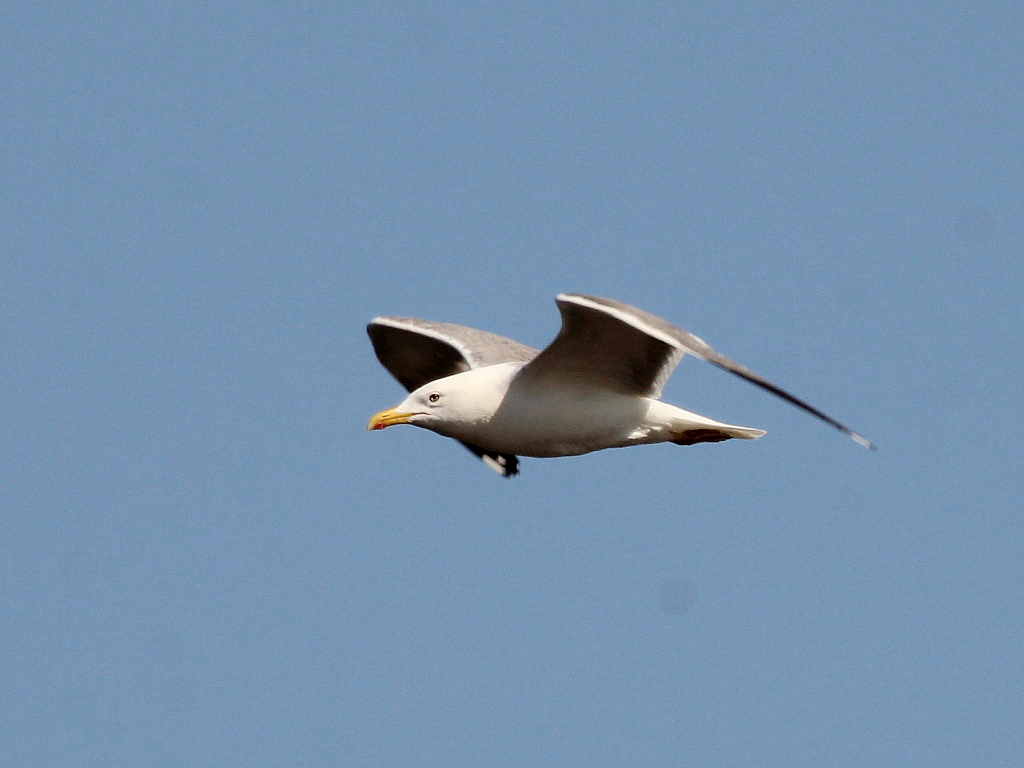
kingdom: Animalia
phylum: Chordata
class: Aves
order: Charadriiformes
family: Laridae
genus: Larus
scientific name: Larus fuscus
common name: Lesser black-backed gull
